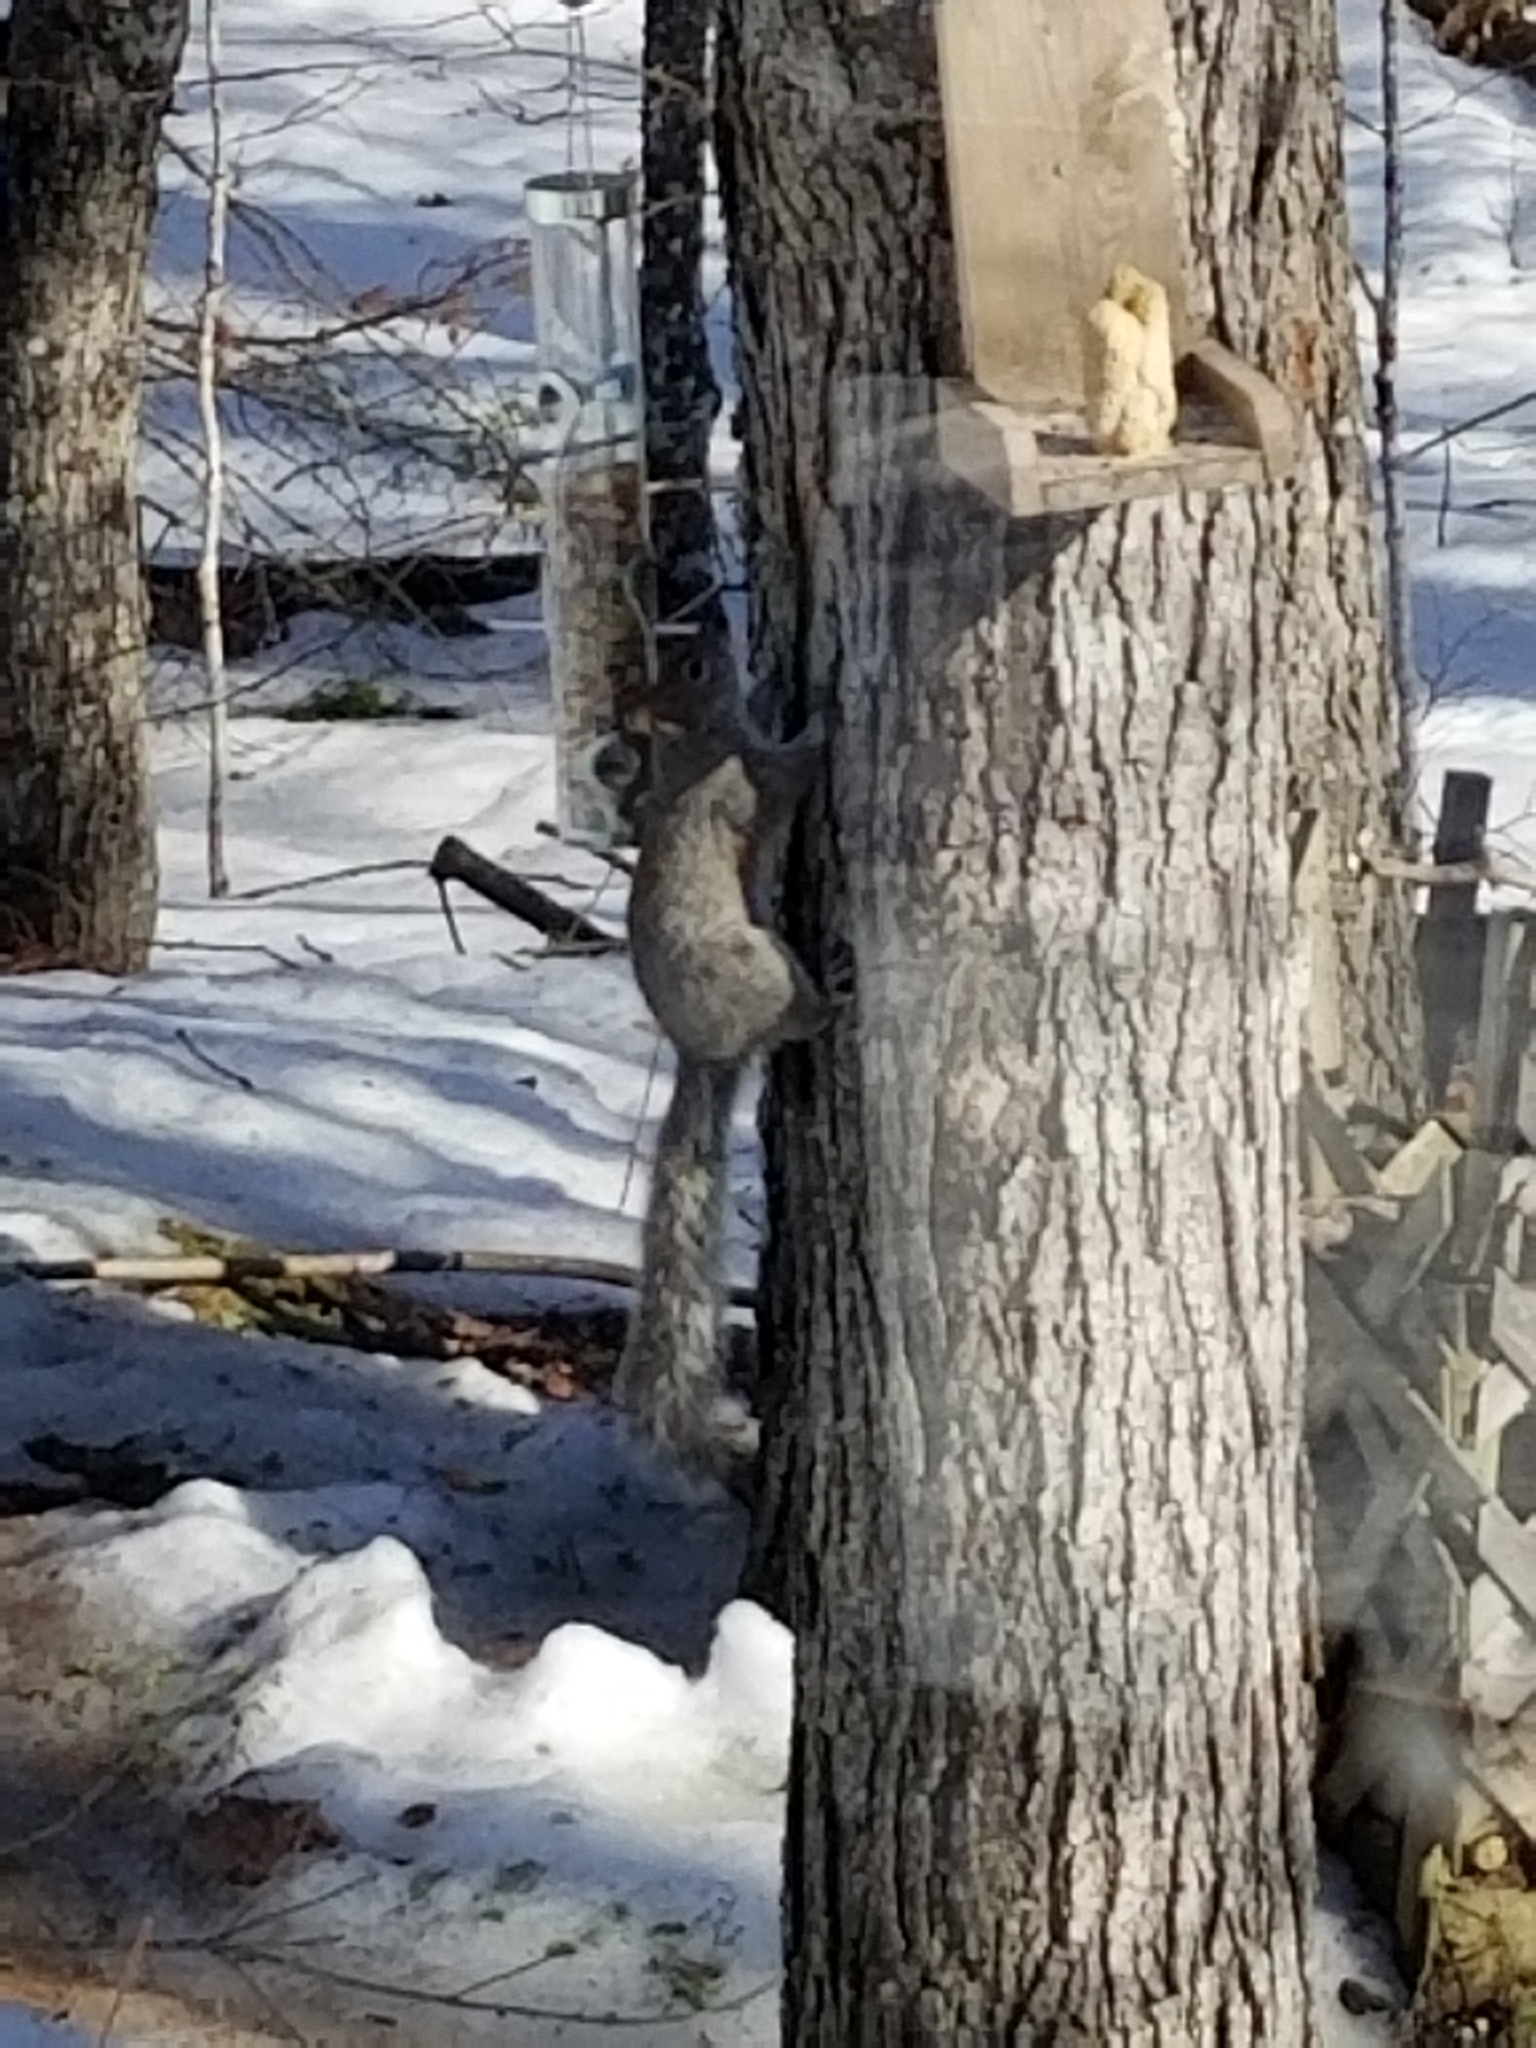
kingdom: Animalia
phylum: Chordata
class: Mammalia
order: Rodentia
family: Sciuridae
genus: Sciurus
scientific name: Sciurus carolinensis
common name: Eastern gray squirrel
